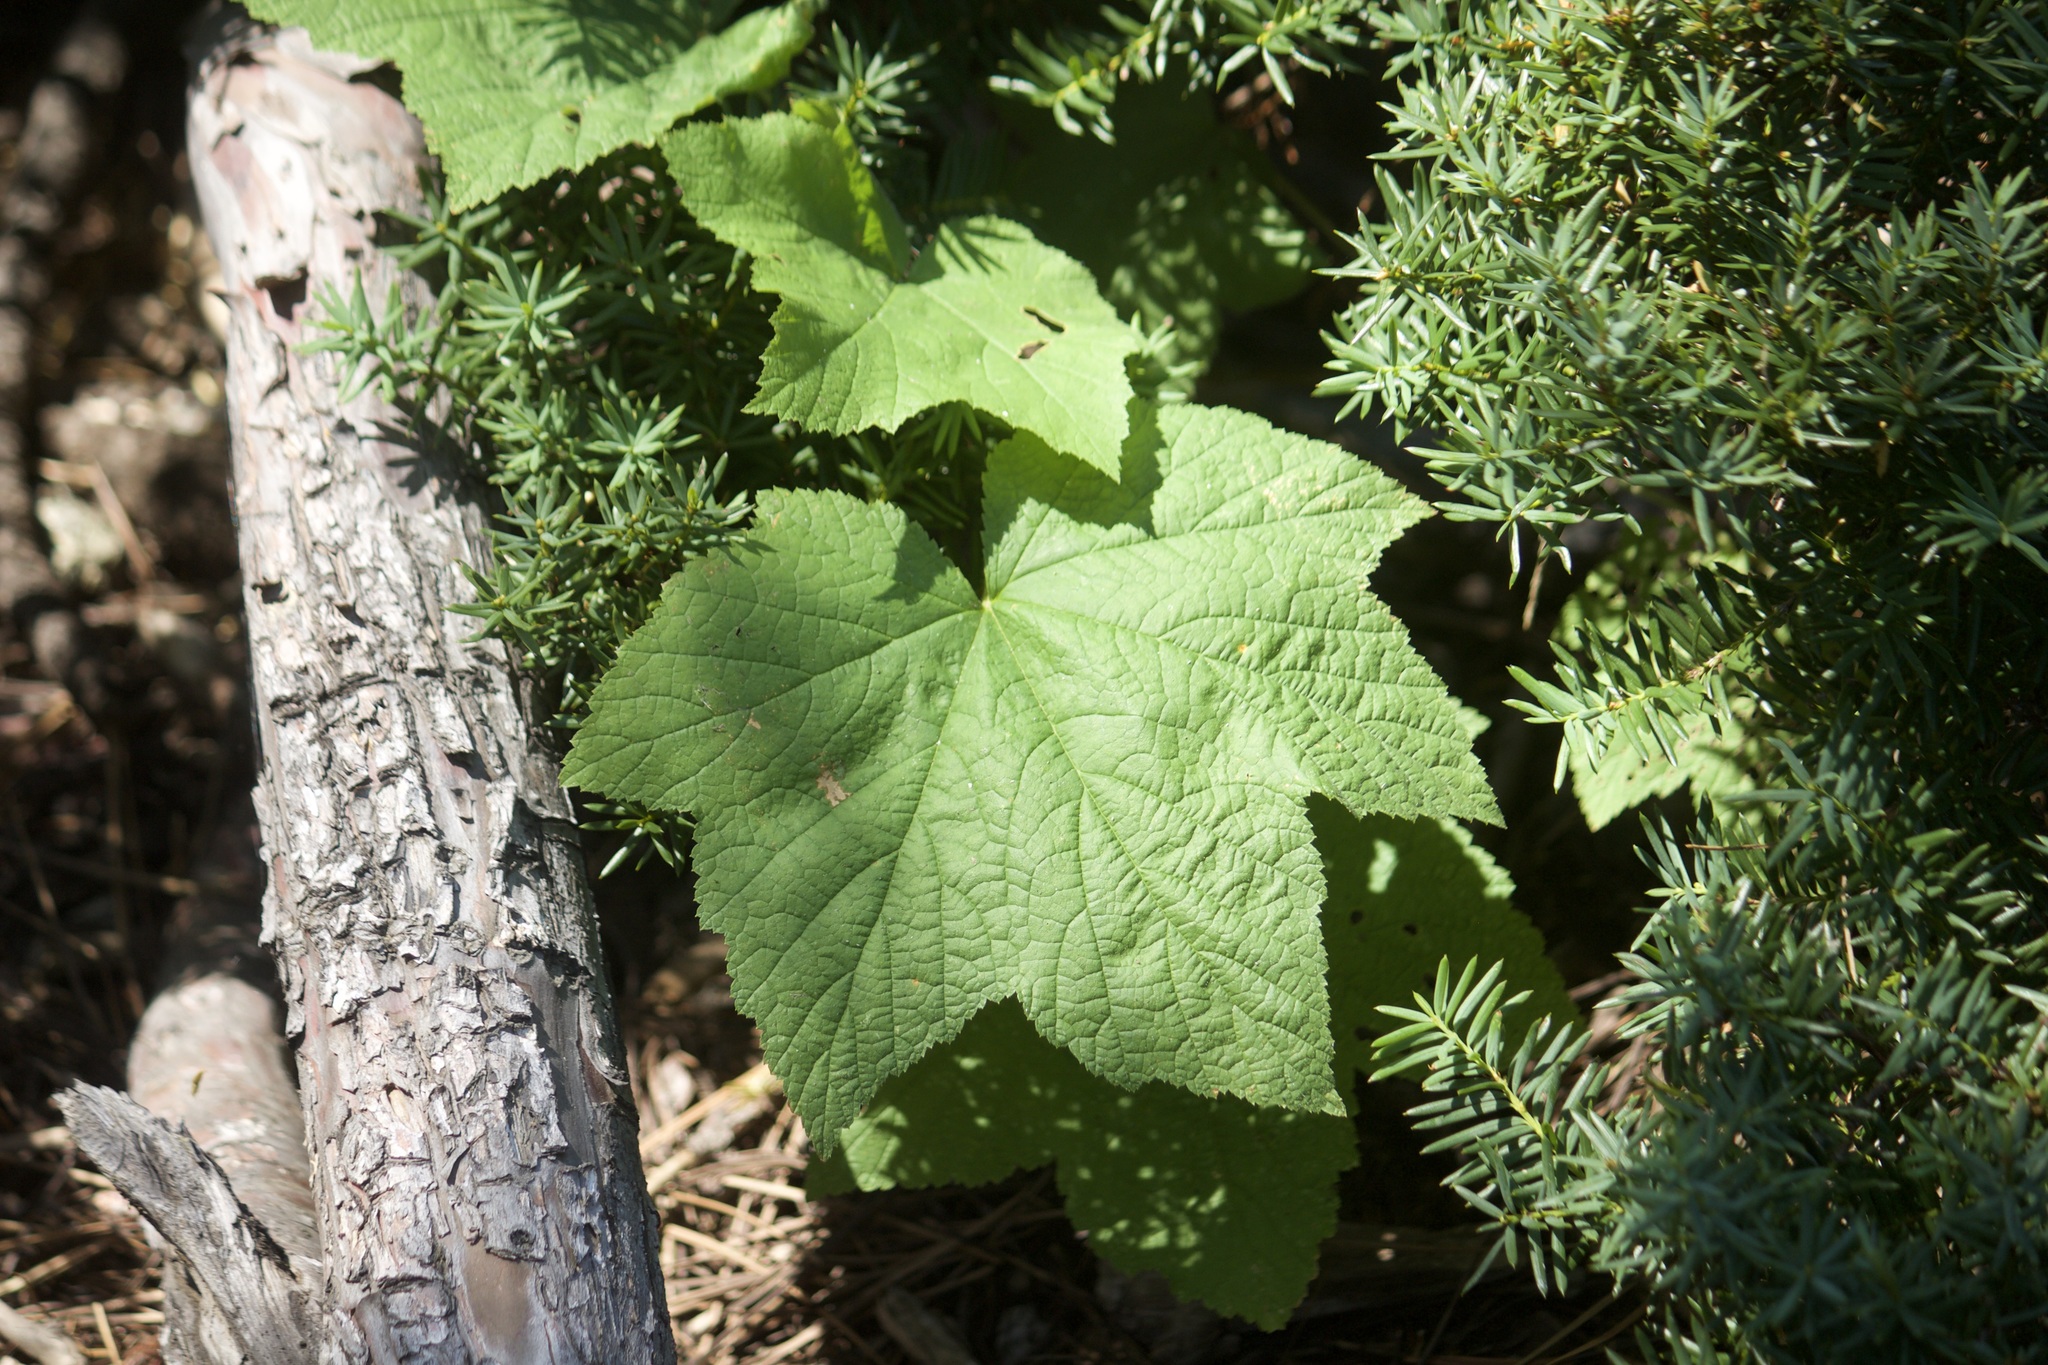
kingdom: Plantae
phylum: Tracheophyta
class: Magnoliopsida
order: Rosales
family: Rosaceae
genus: Rubus
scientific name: Rubus parviflorus
